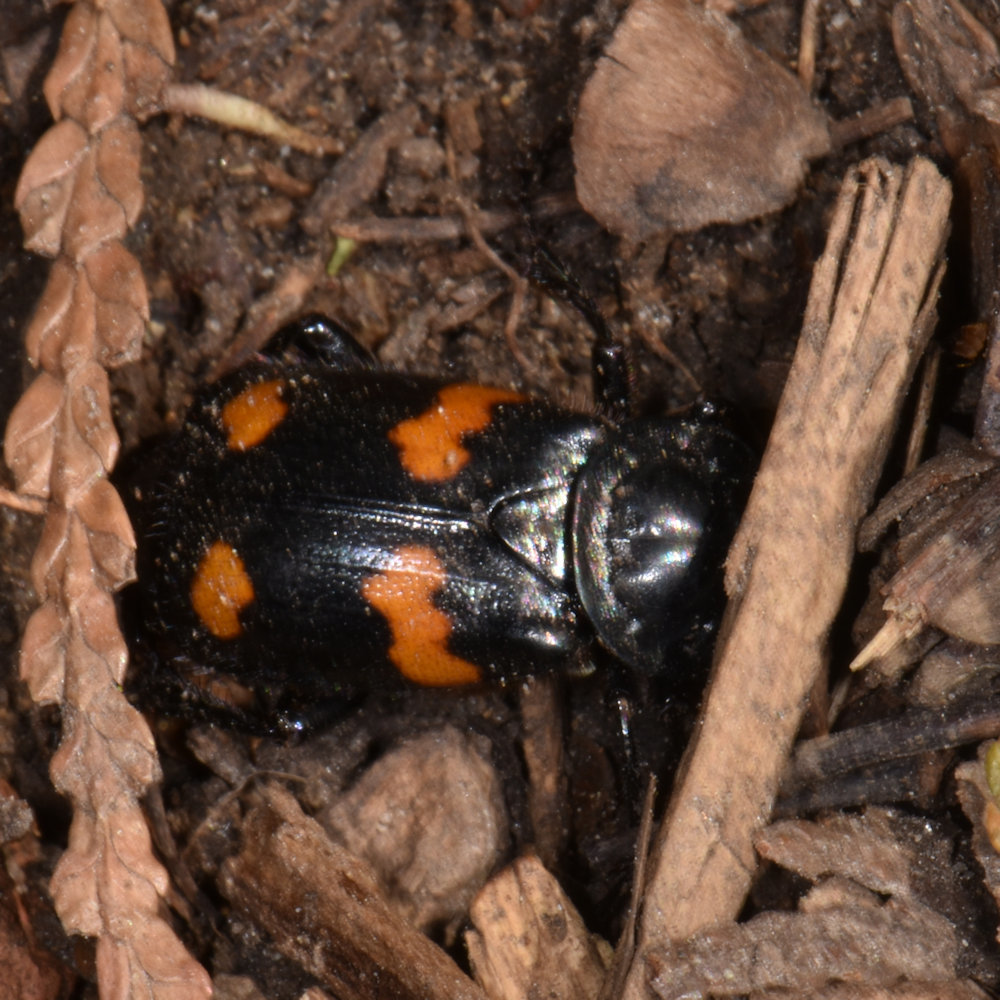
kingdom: Animalia
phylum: Arthropoda
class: Insecta
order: Coleoptera
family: Staphylinidae
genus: Nicrophorus
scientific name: Nicrophorus orbicollis
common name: Roundneck sexton beetle
